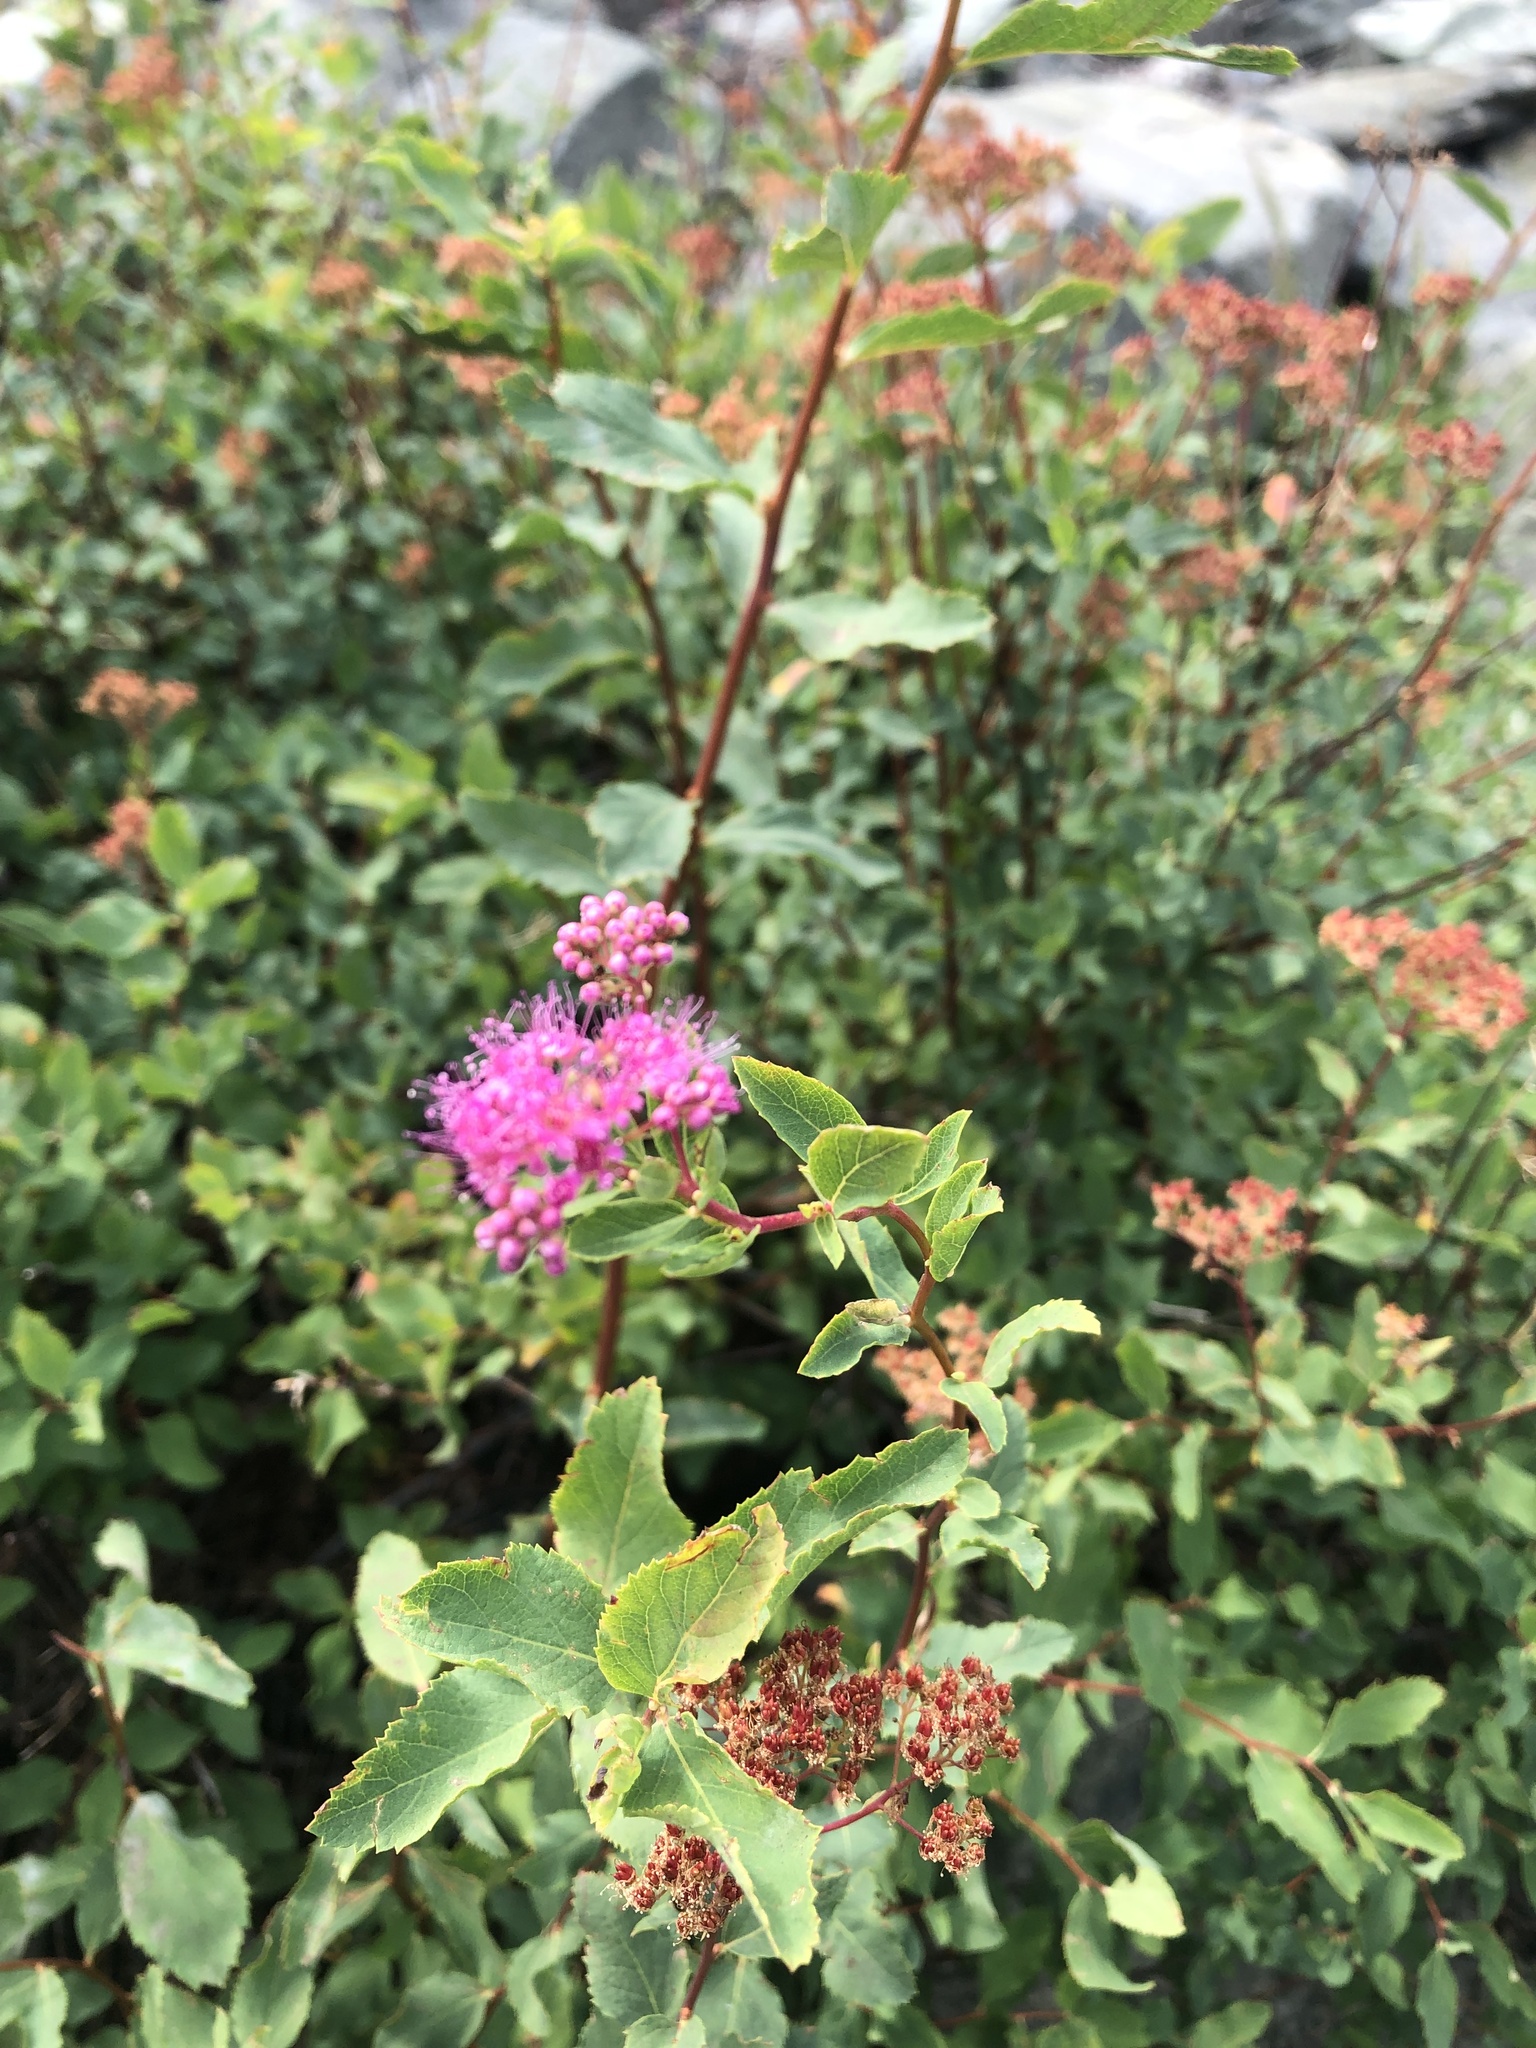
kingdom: Plantae
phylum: Tracheophyta
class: Magnoliopsida
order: Rosales
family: Rosaceae
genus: Spiraea
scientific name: Spiraea splendens
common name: Subalpine meadowsweet
